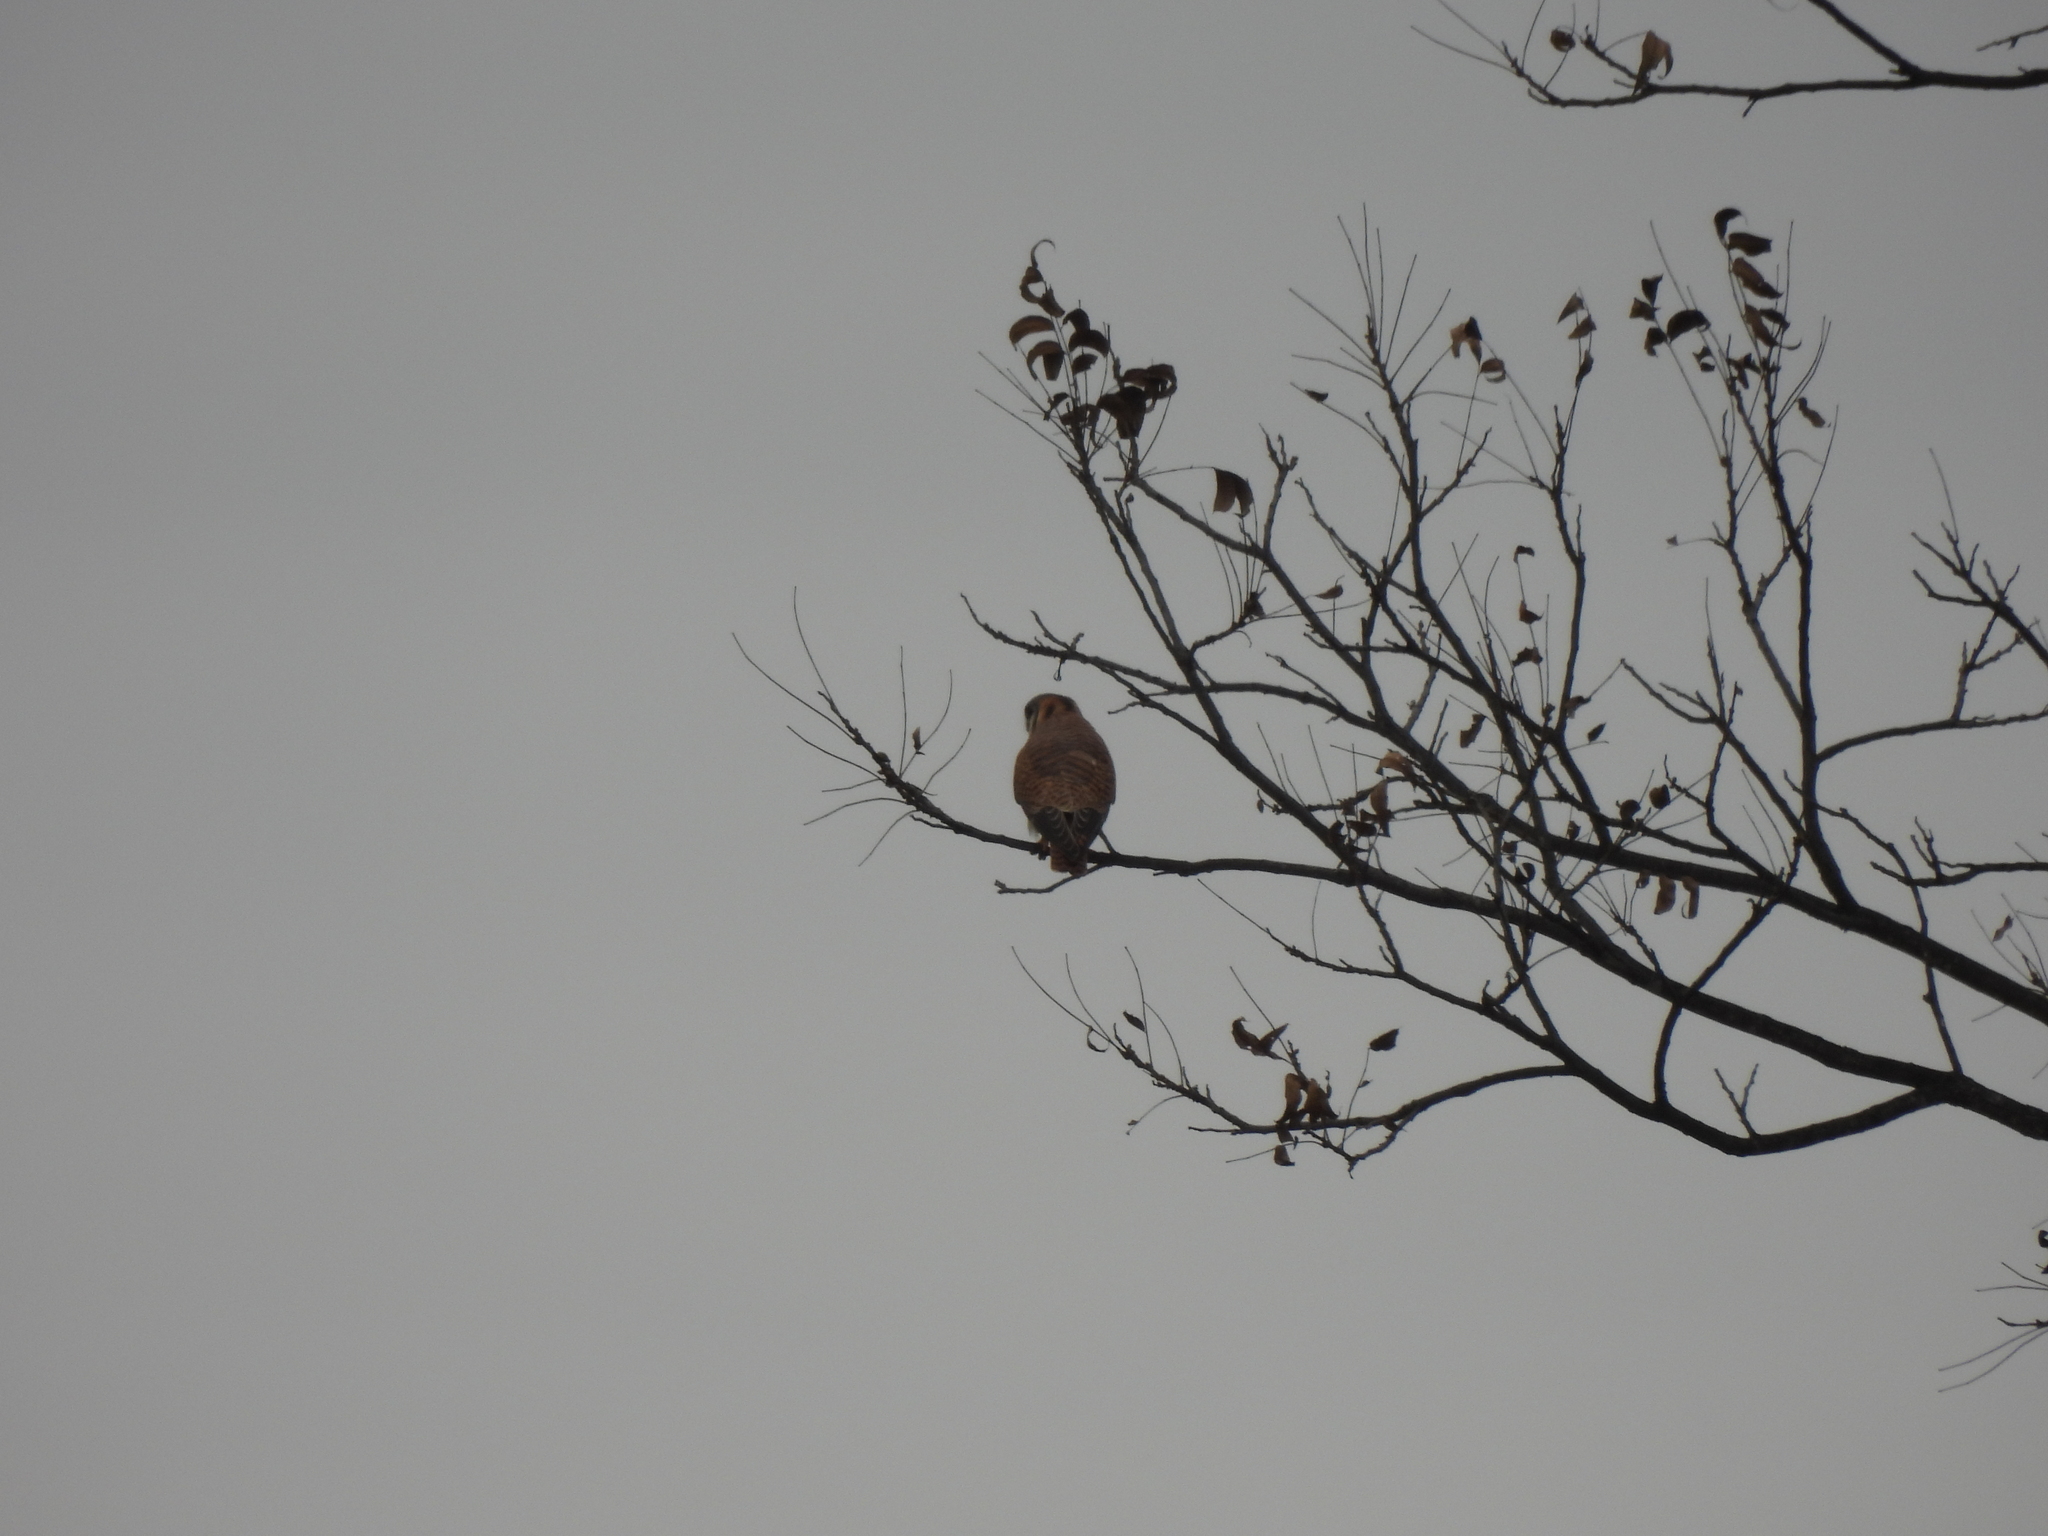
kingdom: Animalia
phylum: Chordata
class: Aves
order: Falconiformes
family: Falconidae
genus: Falco
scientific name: Falco sparverius
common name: American kestrel
